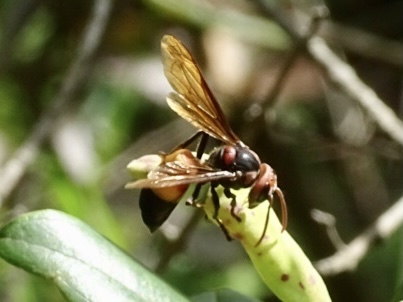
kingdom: Animalia
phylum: Arthropoda
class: Insecta
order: Hymenoptera
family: Vespidae
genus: Vespa
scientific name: Vespa affinis
